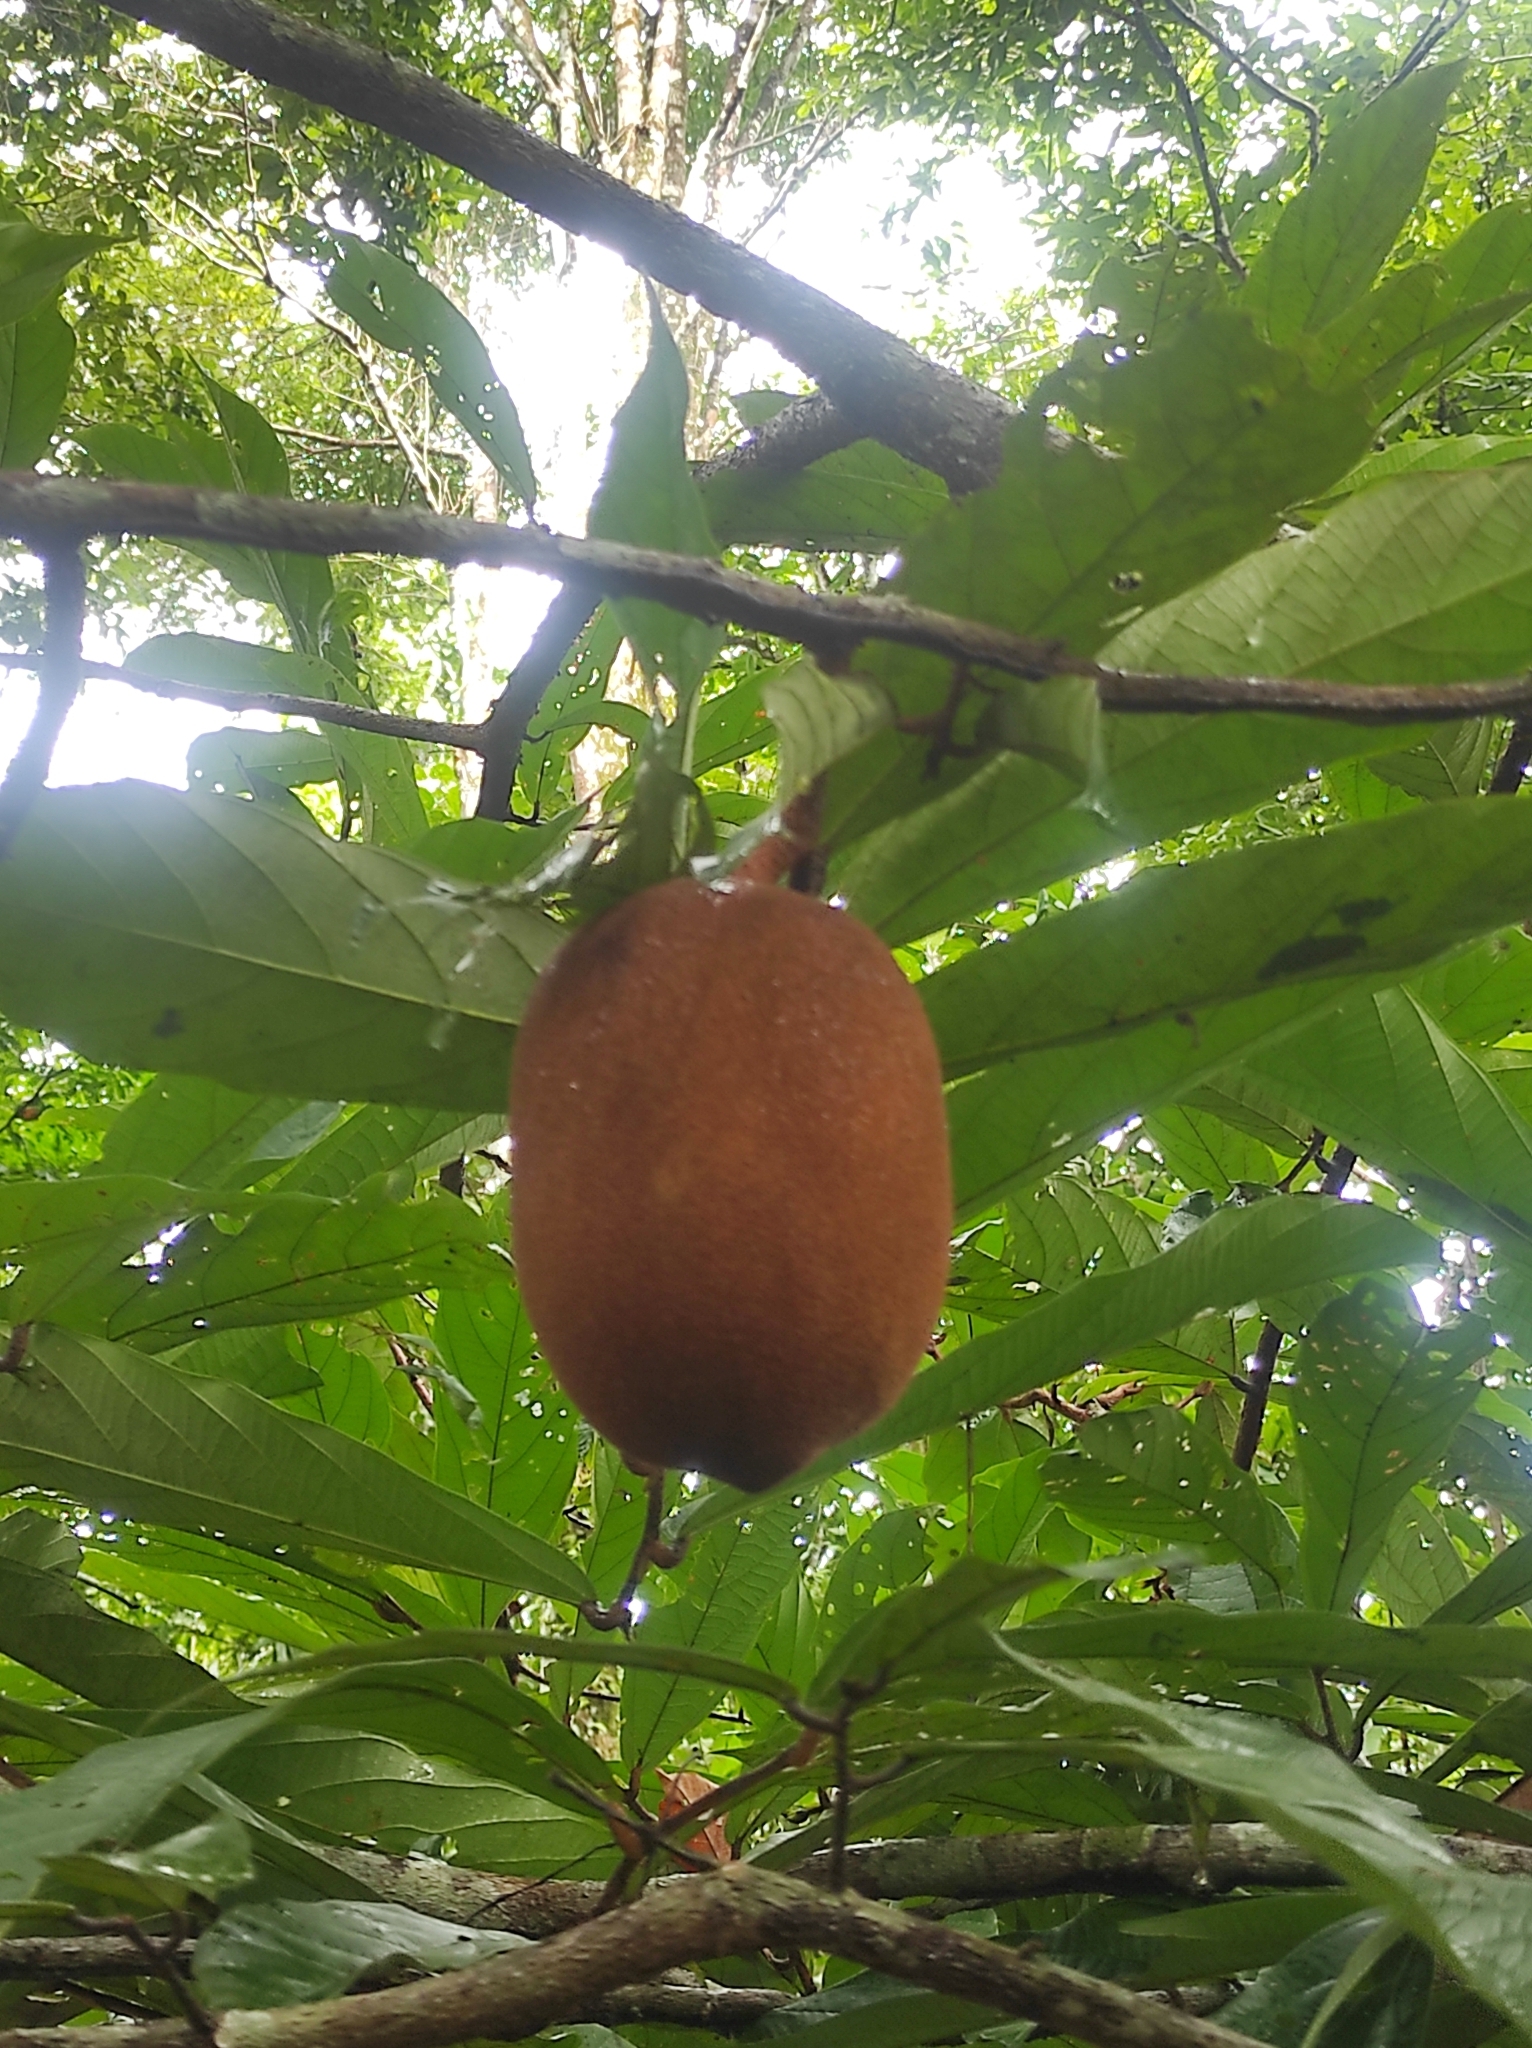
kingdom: Plantae
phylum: Tracheophyta
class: Magnoliopsida
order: Malvales
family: Malvaceae
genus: Theobroma
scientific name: Theobroma grandiflorum
